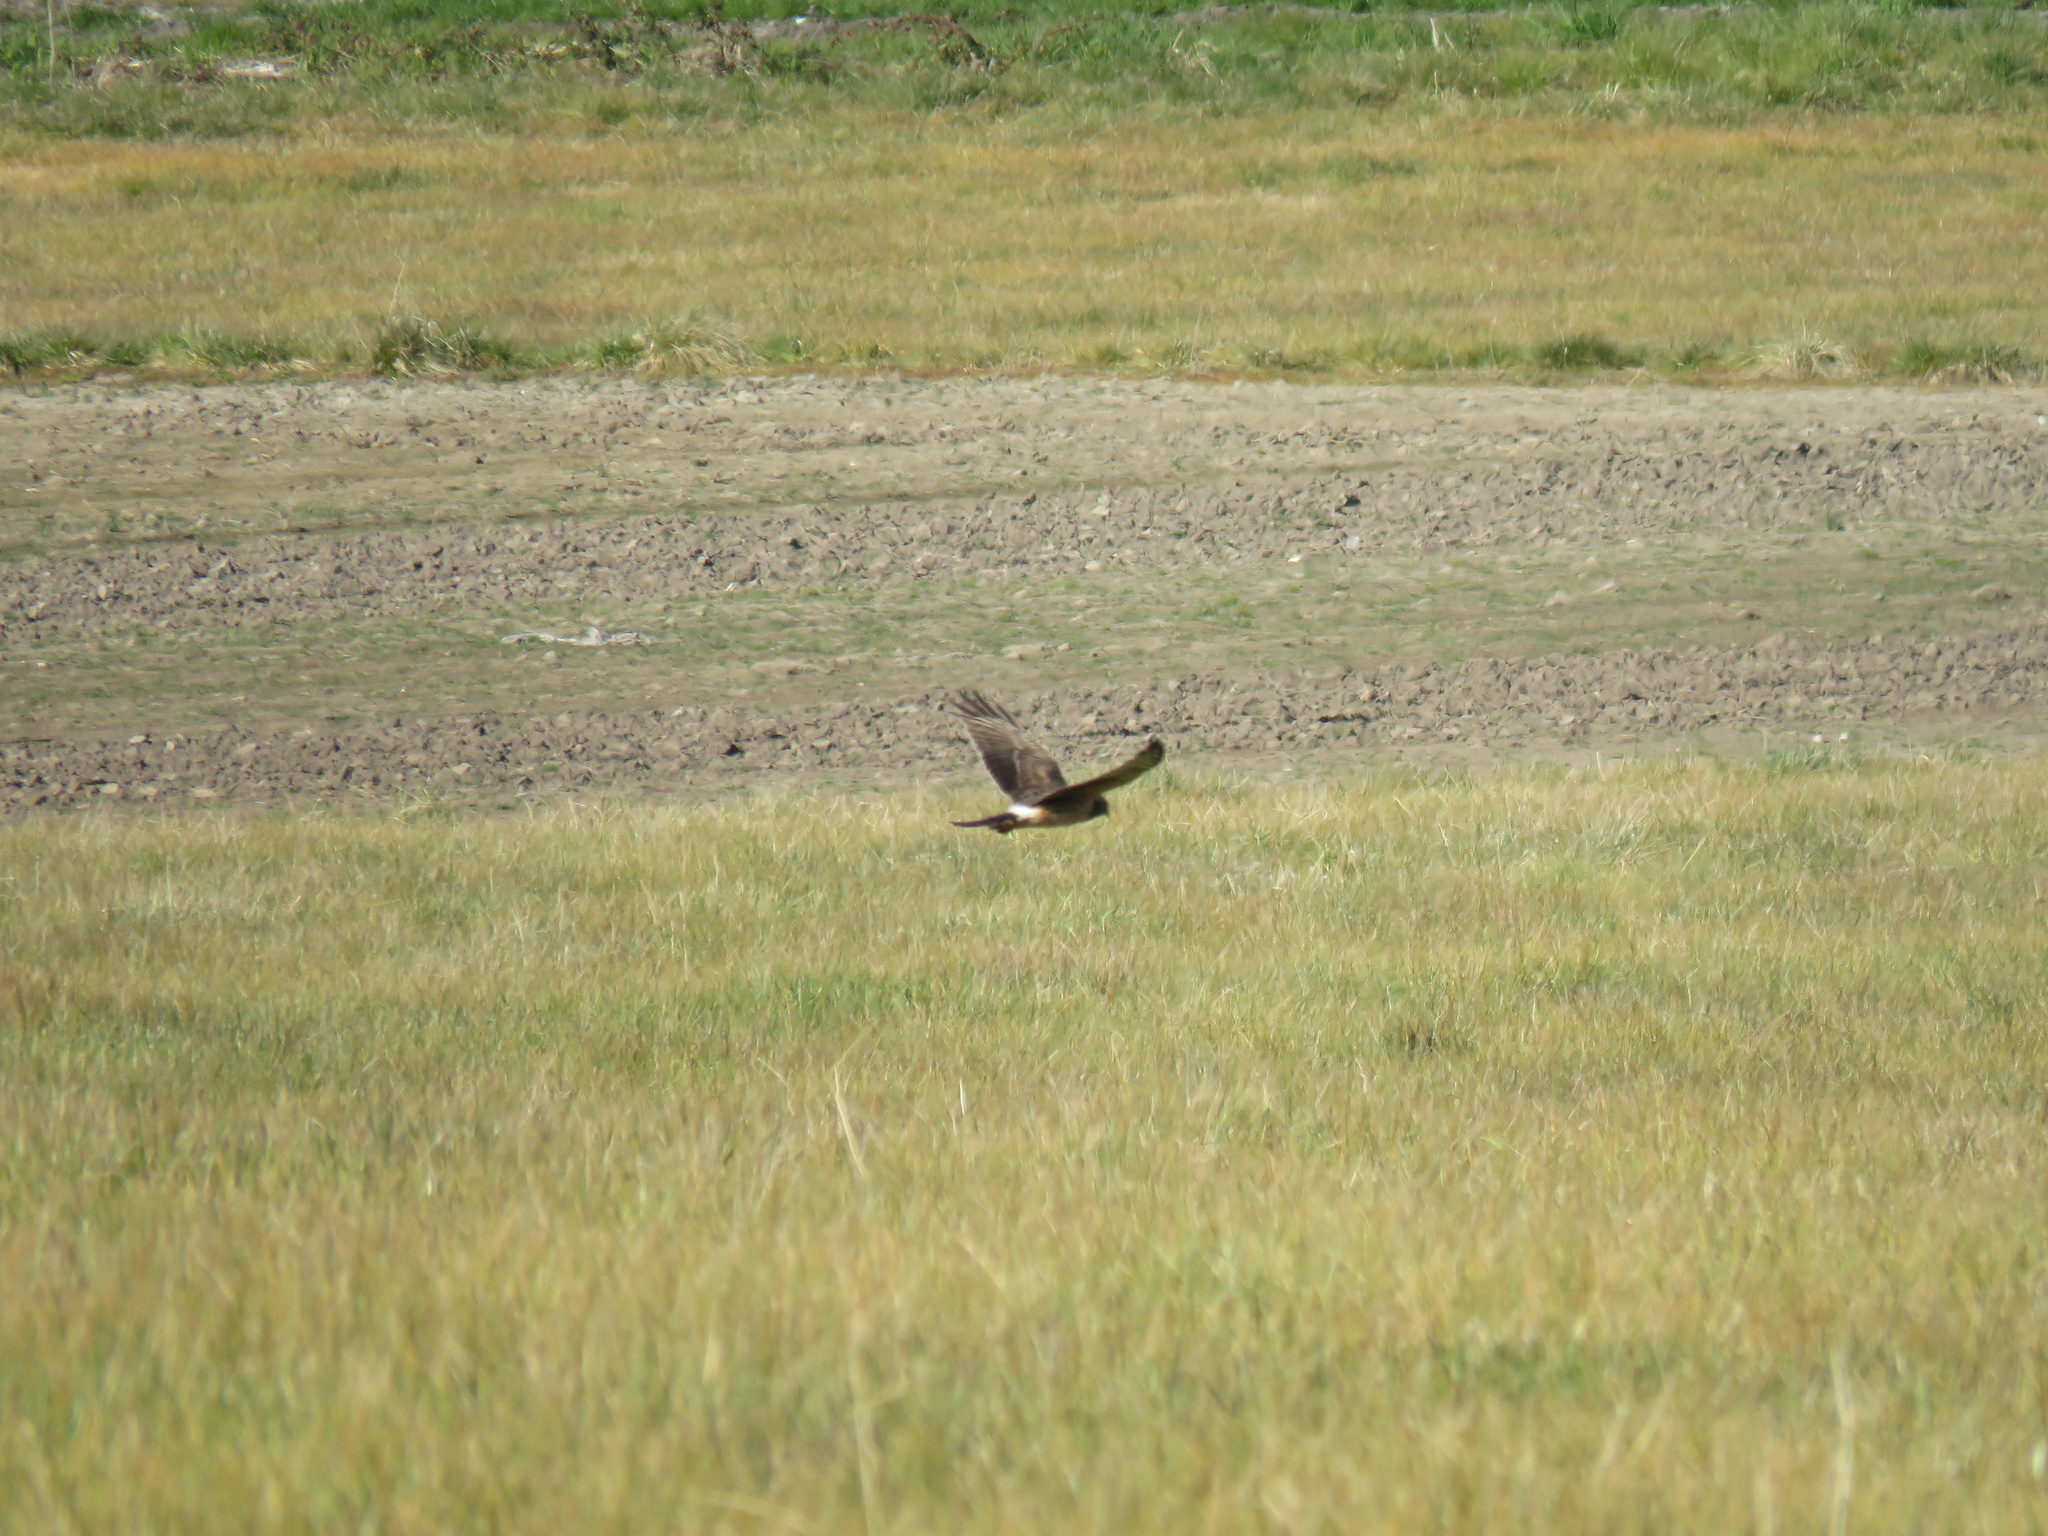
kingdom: Animalia
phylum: Chordata
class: Aves
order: Accipitriformes
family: Accipitridae
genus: Circus
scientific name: Circus cyaneus
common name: Hen harrier
